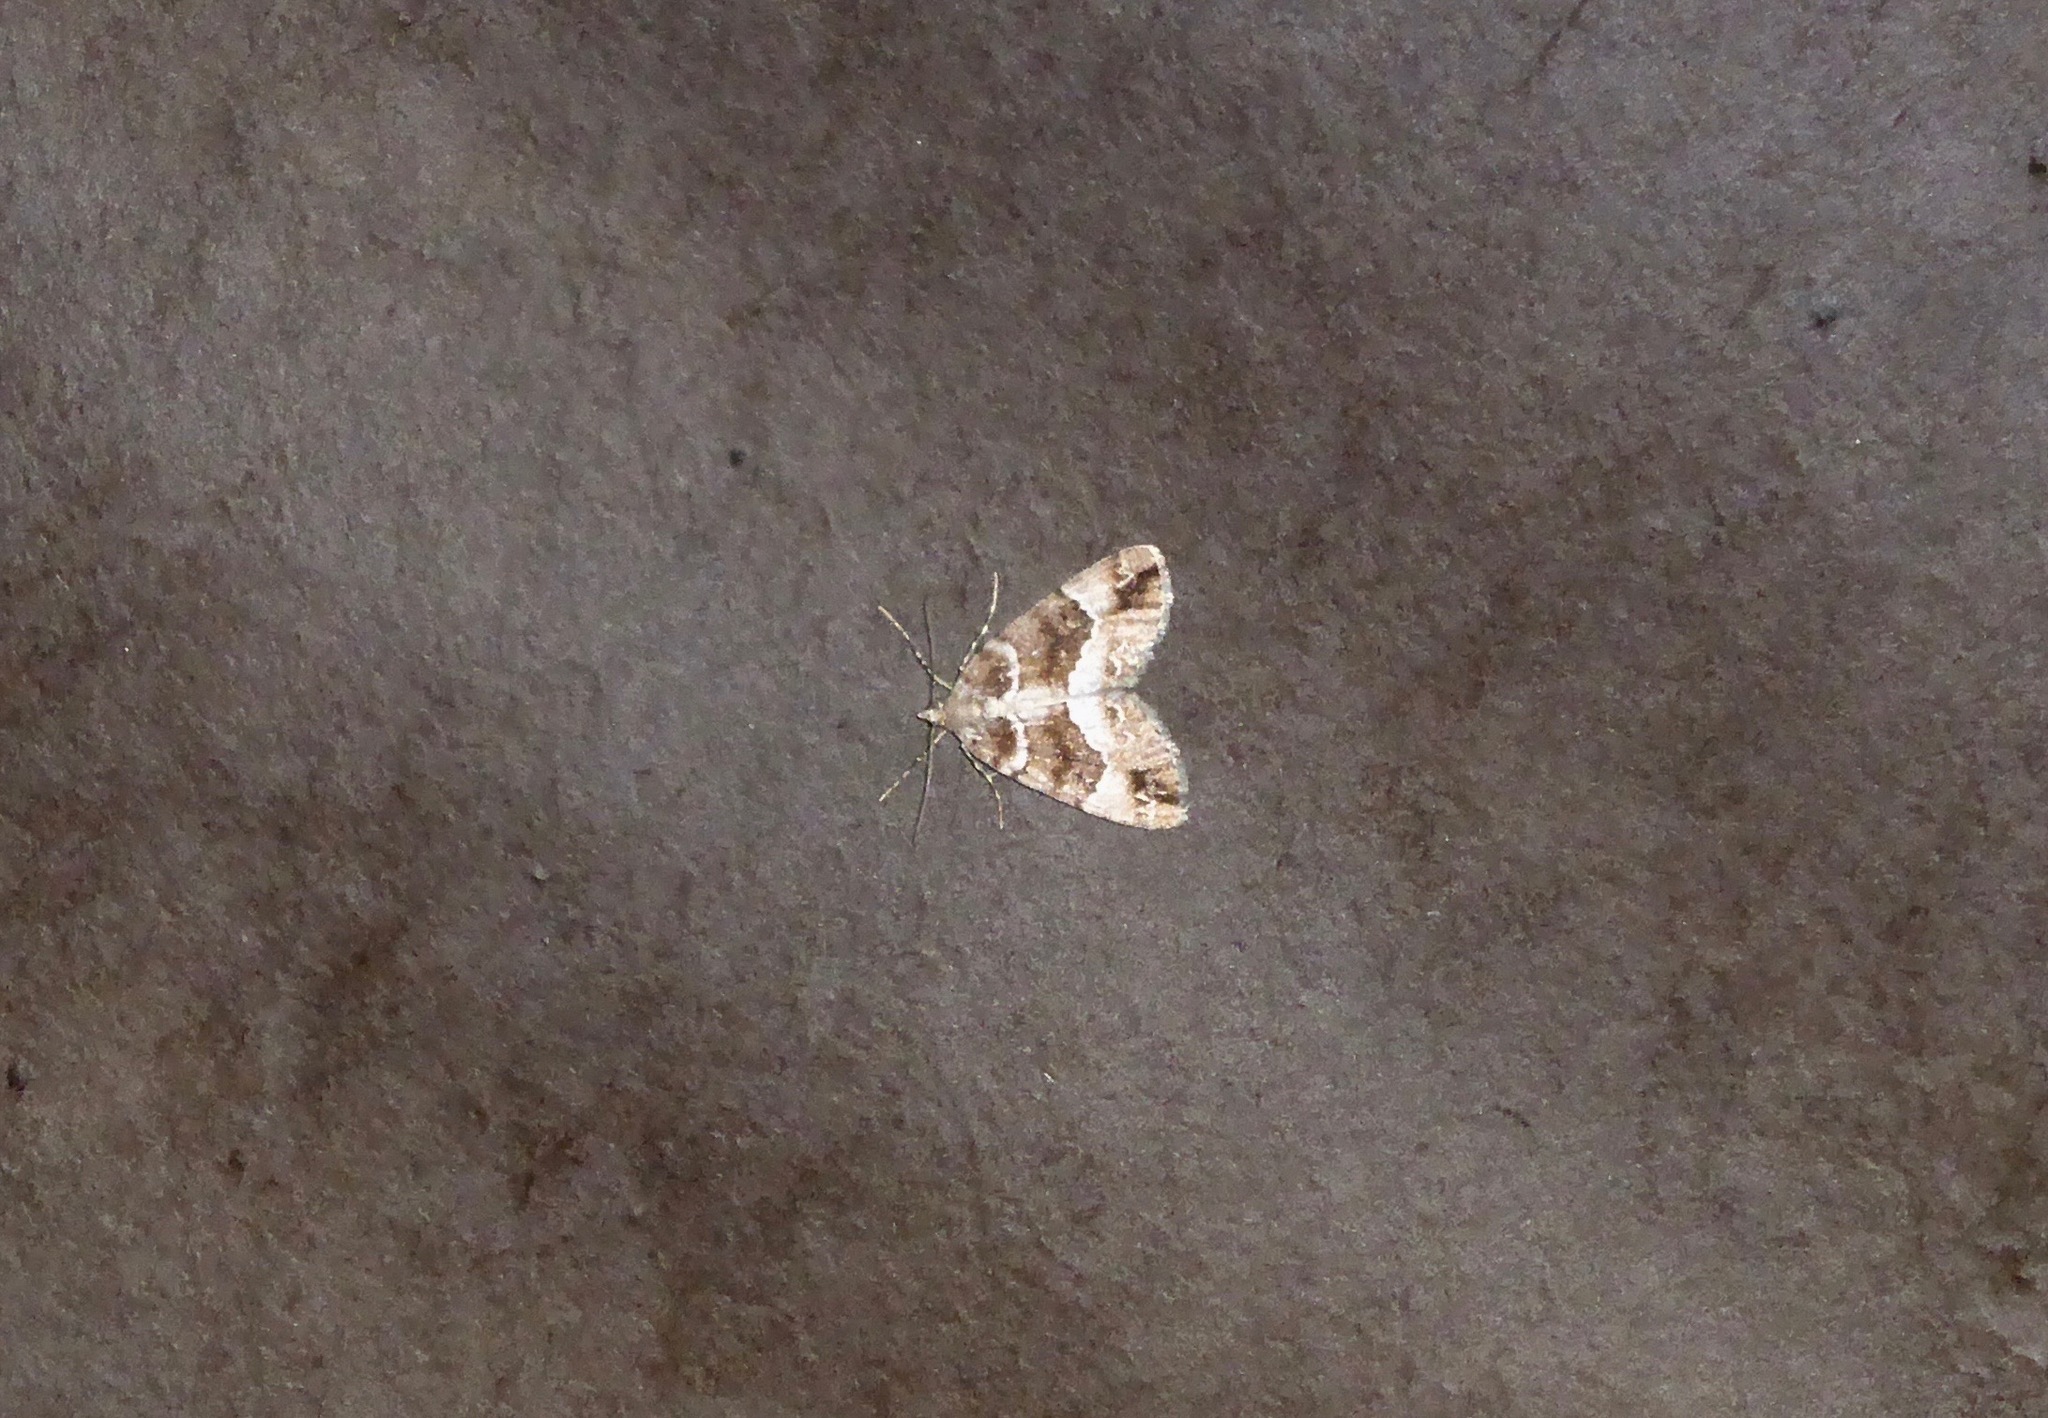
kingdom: Animalia
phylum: Arthropoda
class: Insecta
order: Lepidoptera
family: Geometridae
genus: Pseudocoremia
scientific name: Pseudocoremia productata
